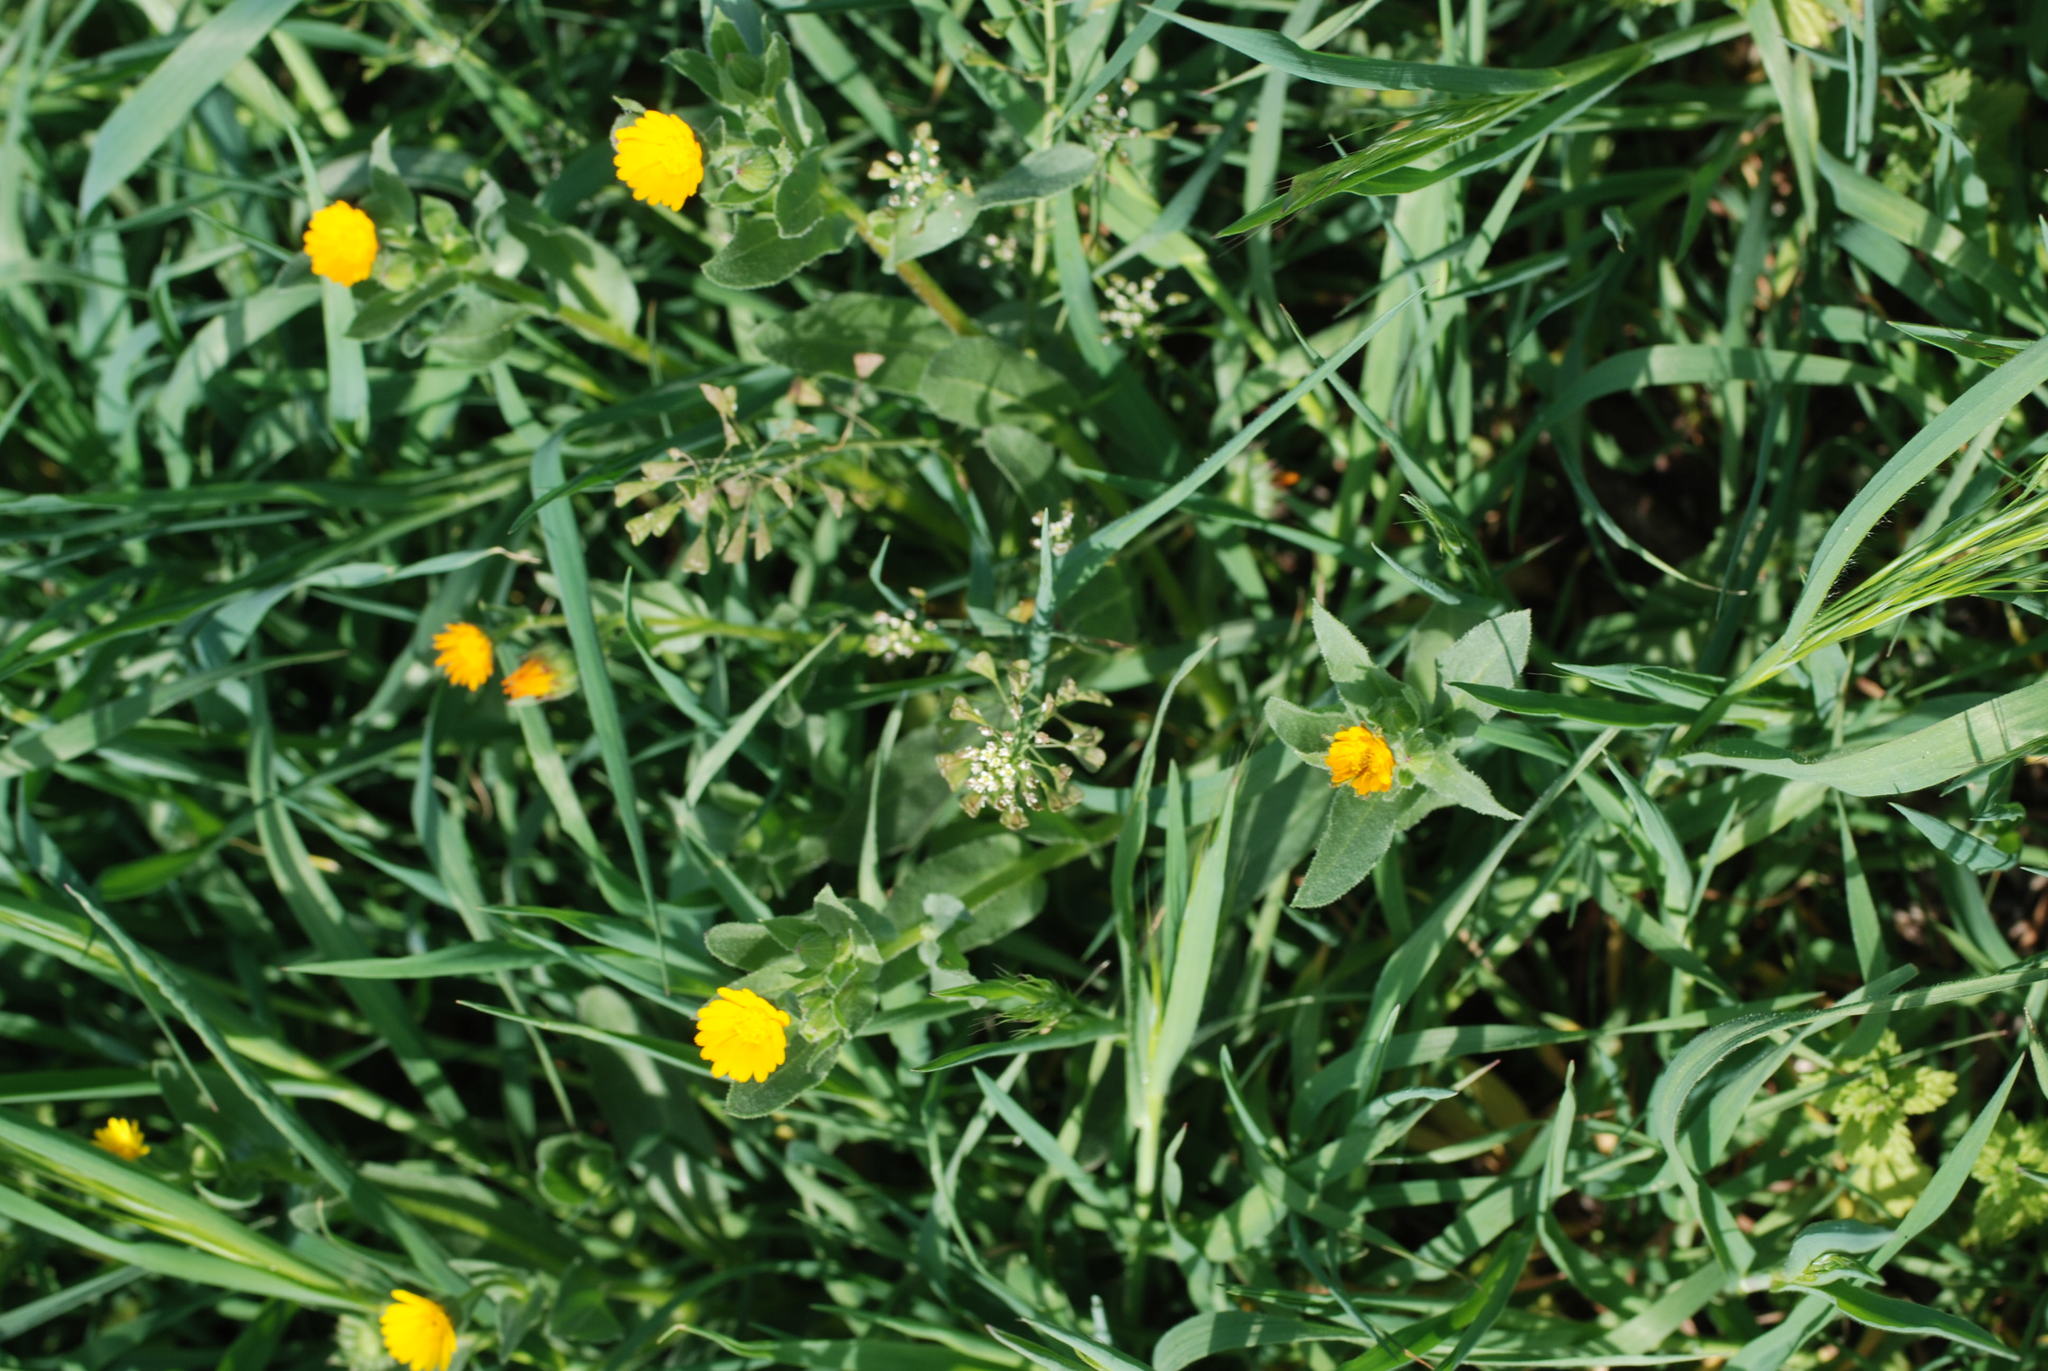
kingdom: Plantae
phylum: Tracheophyta
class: Magnoliopsida
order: Asterales
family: Asteraceae
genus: Calendula
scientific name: Calendula arvensis
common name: Field marigold
